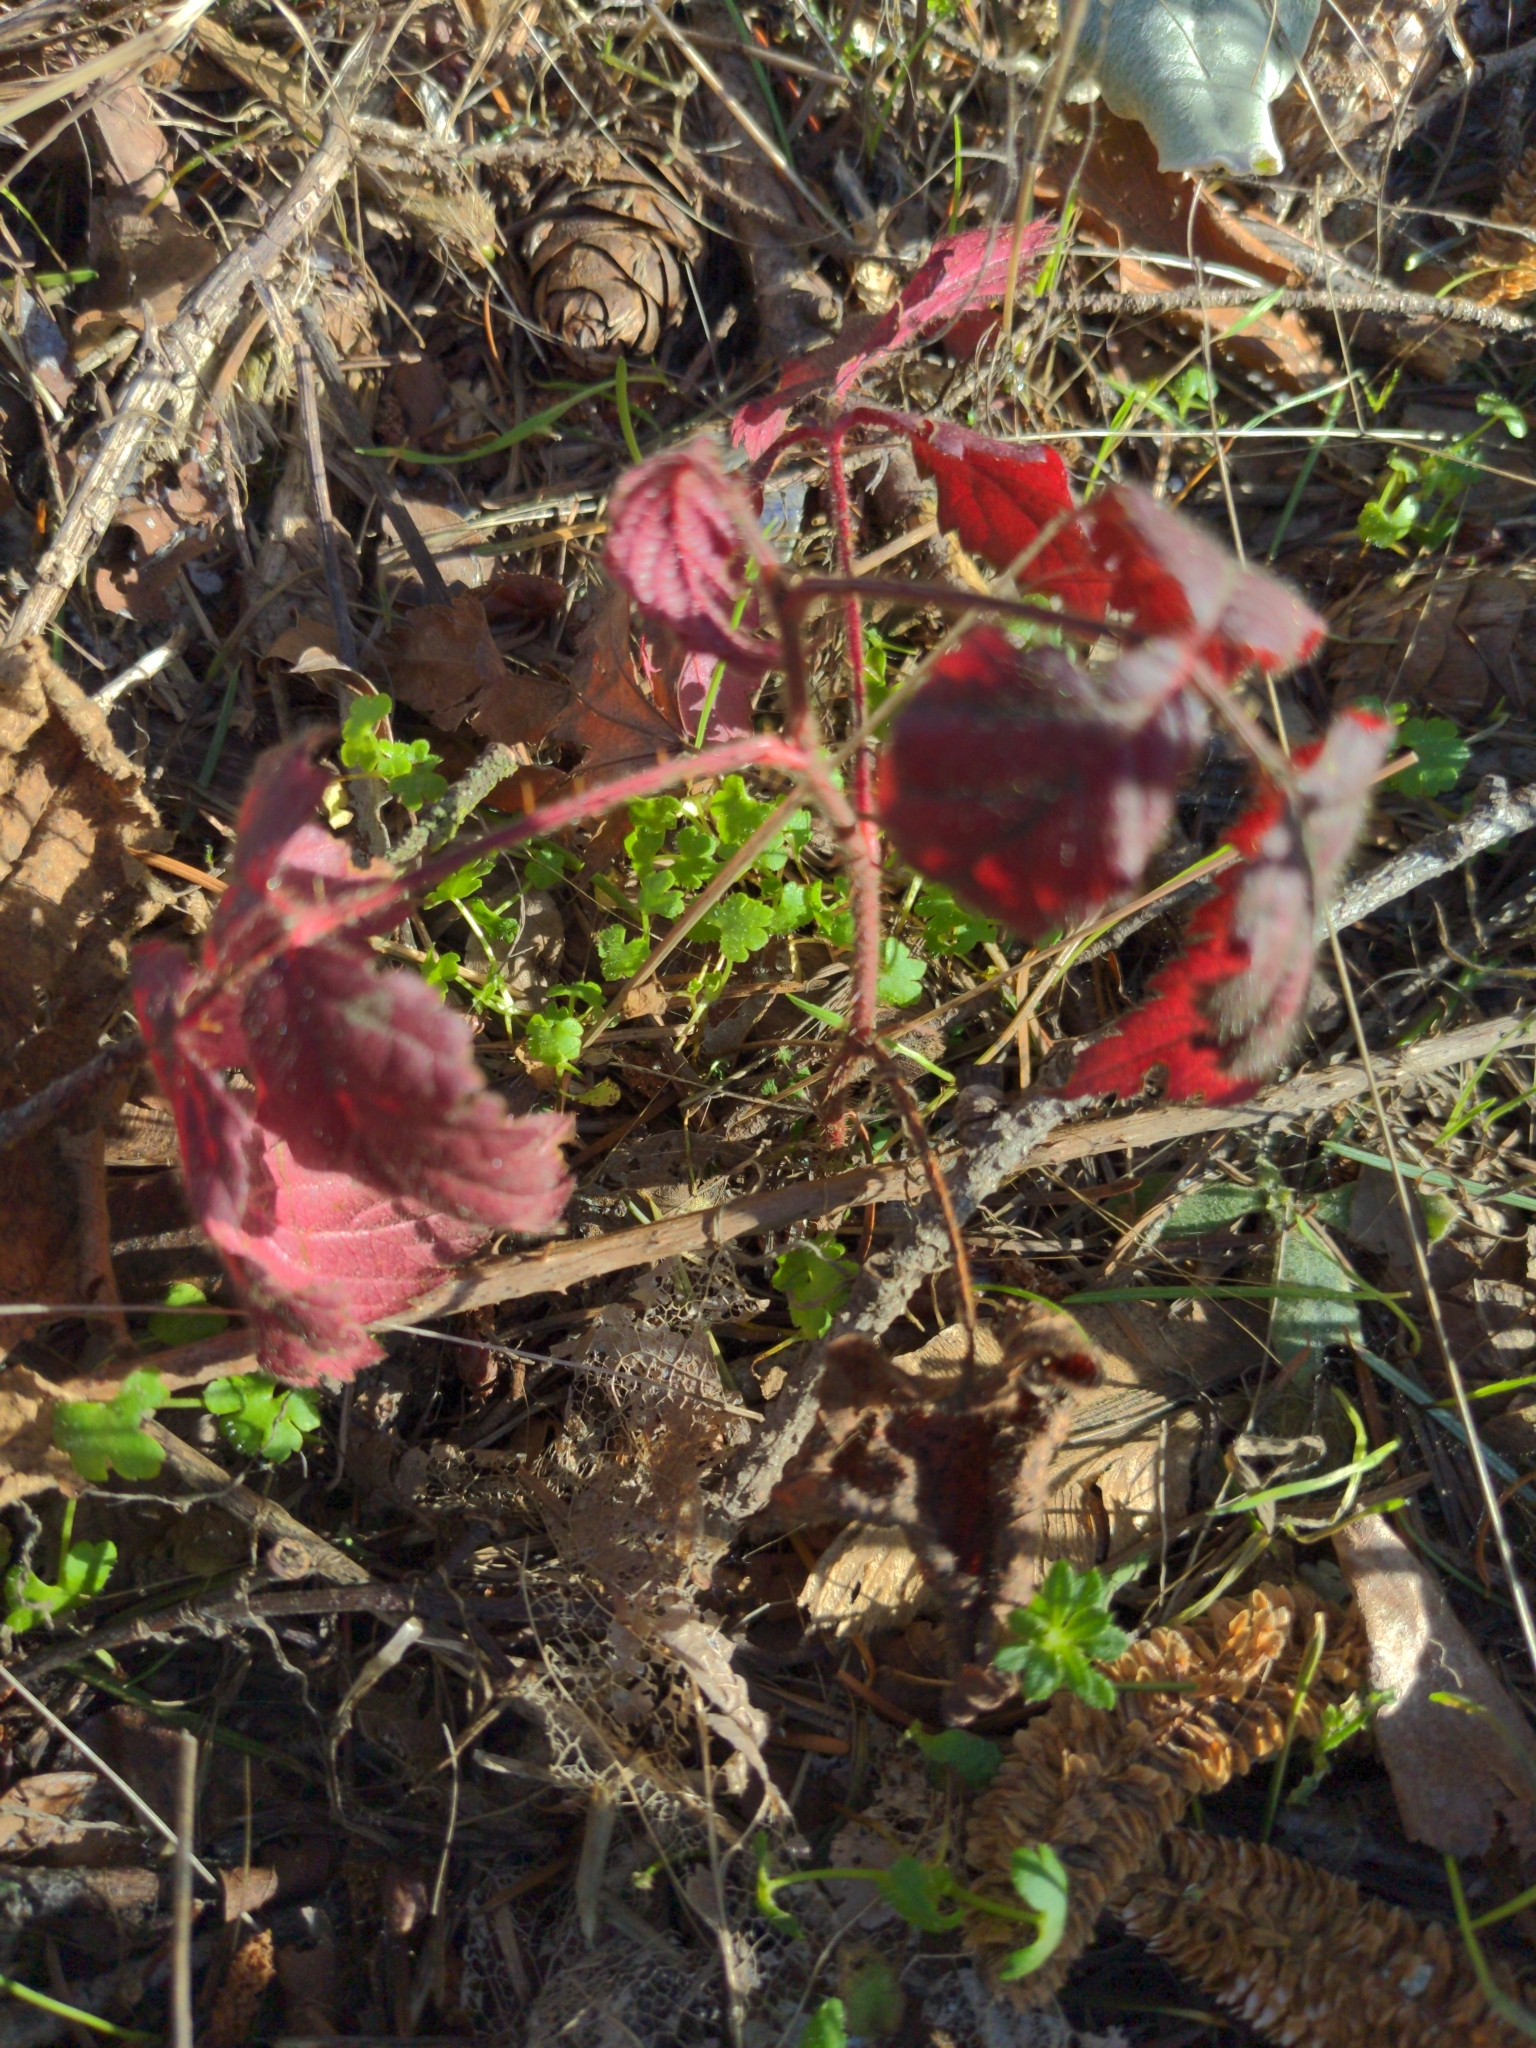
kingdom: Plantae
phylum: Tracheophyta
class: Magnoliopsida
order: Rosales
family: Rosaceae
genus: Rubus
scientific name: Rubus ursinus
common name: Pacific blackberry
